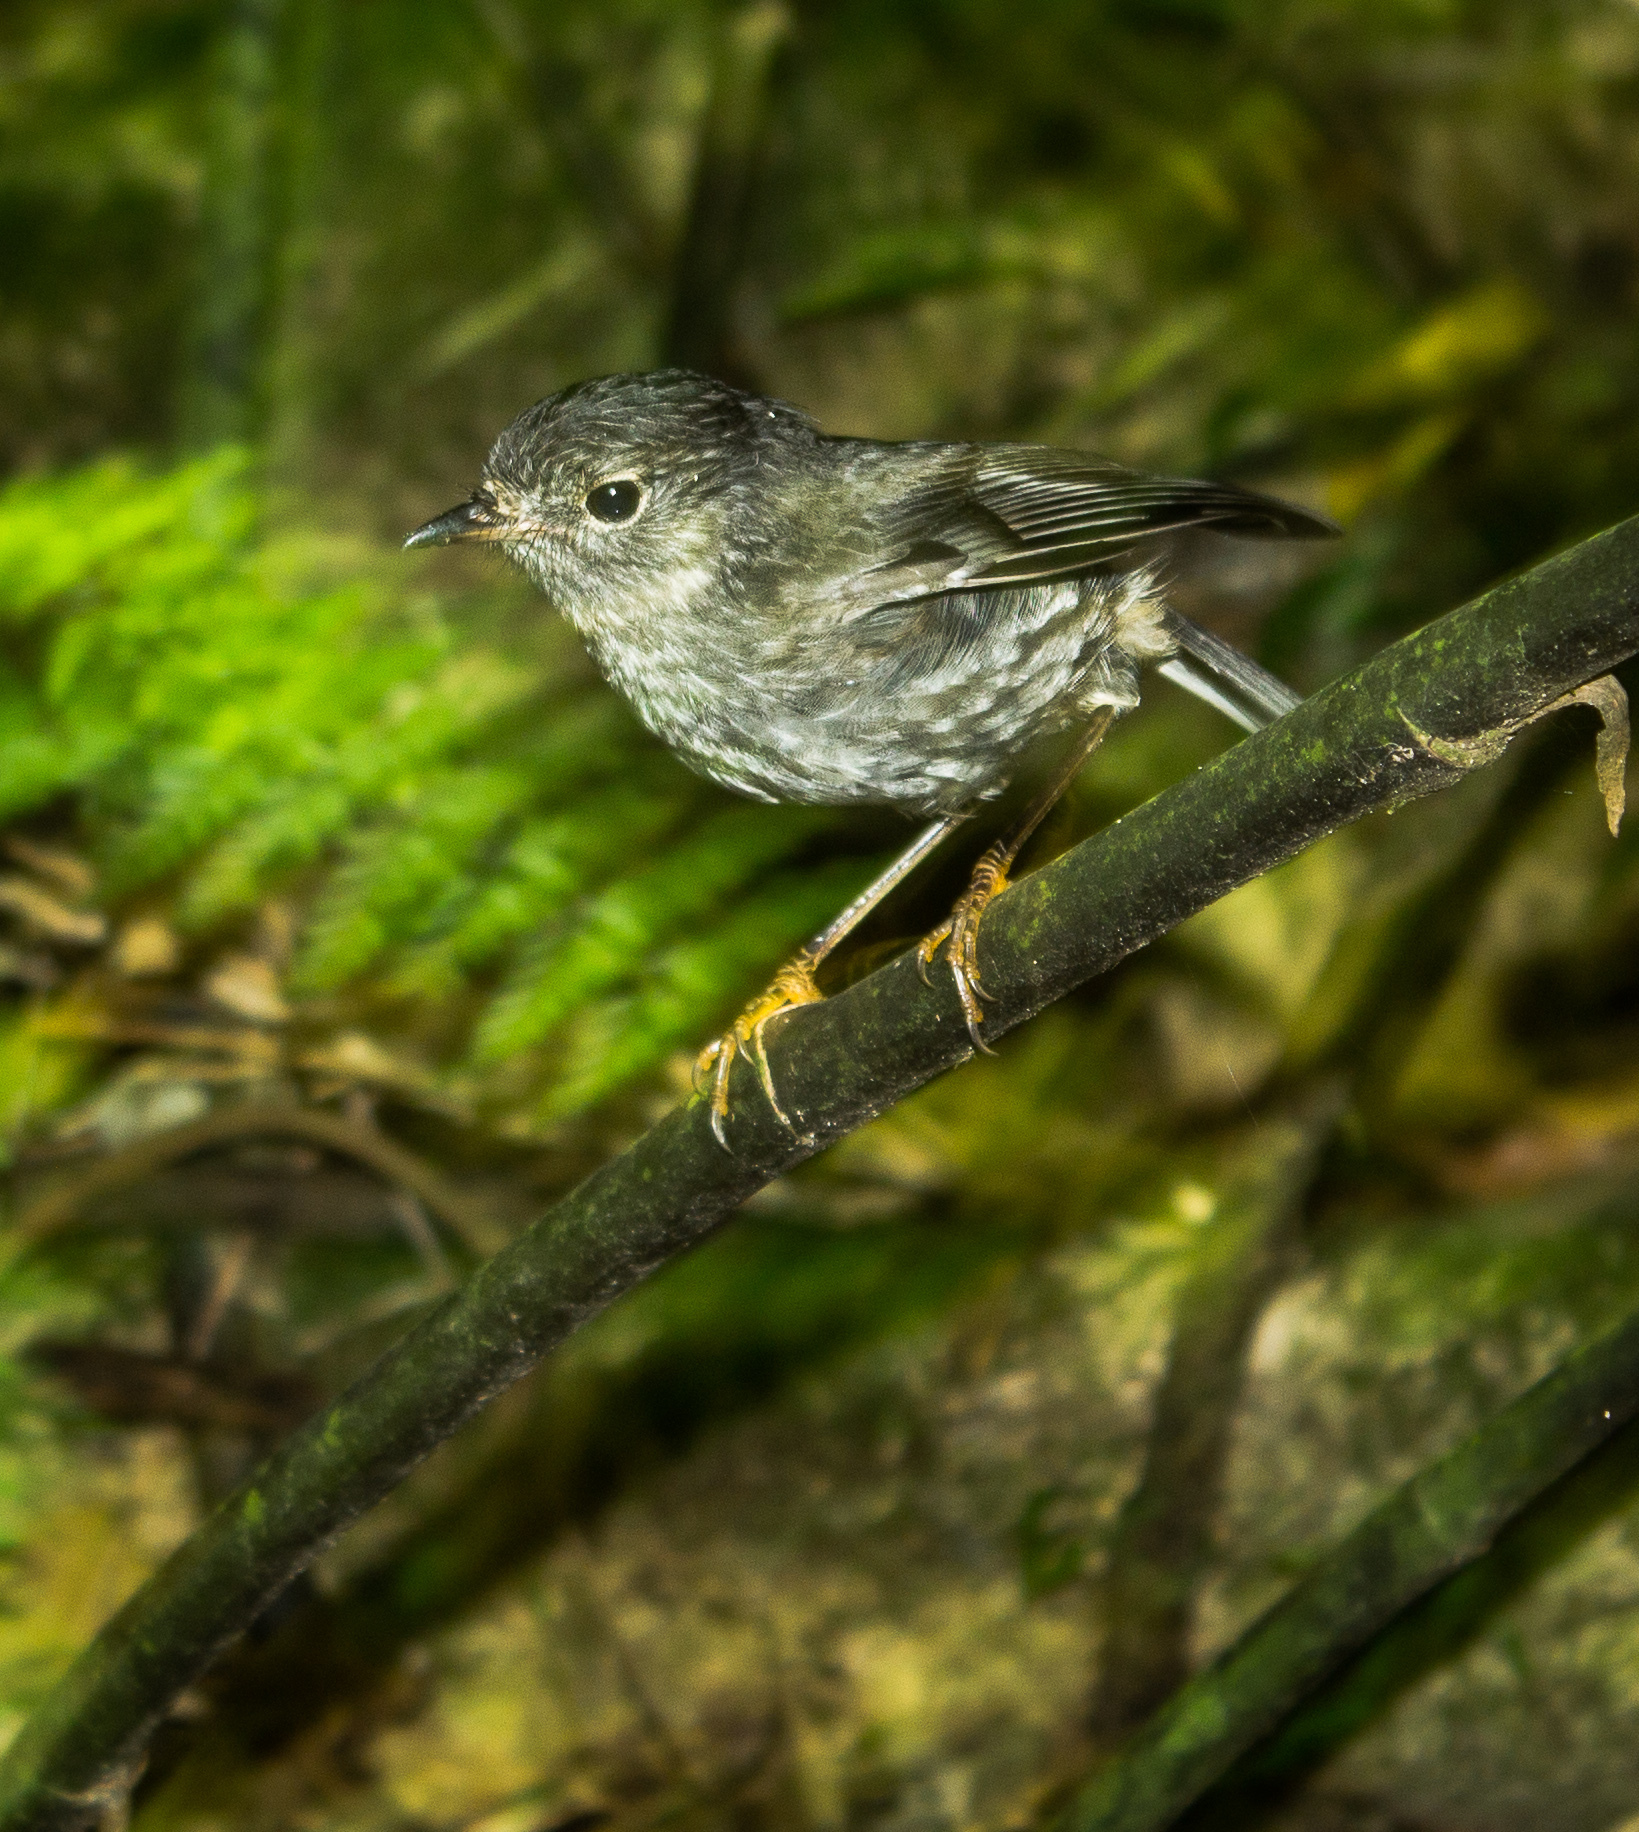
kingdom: Animalia
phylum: Chordata
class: Aves
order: Passeriformes
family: Petroicidae
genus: Petroica
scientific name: Petroica australis
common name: New zealand robin
